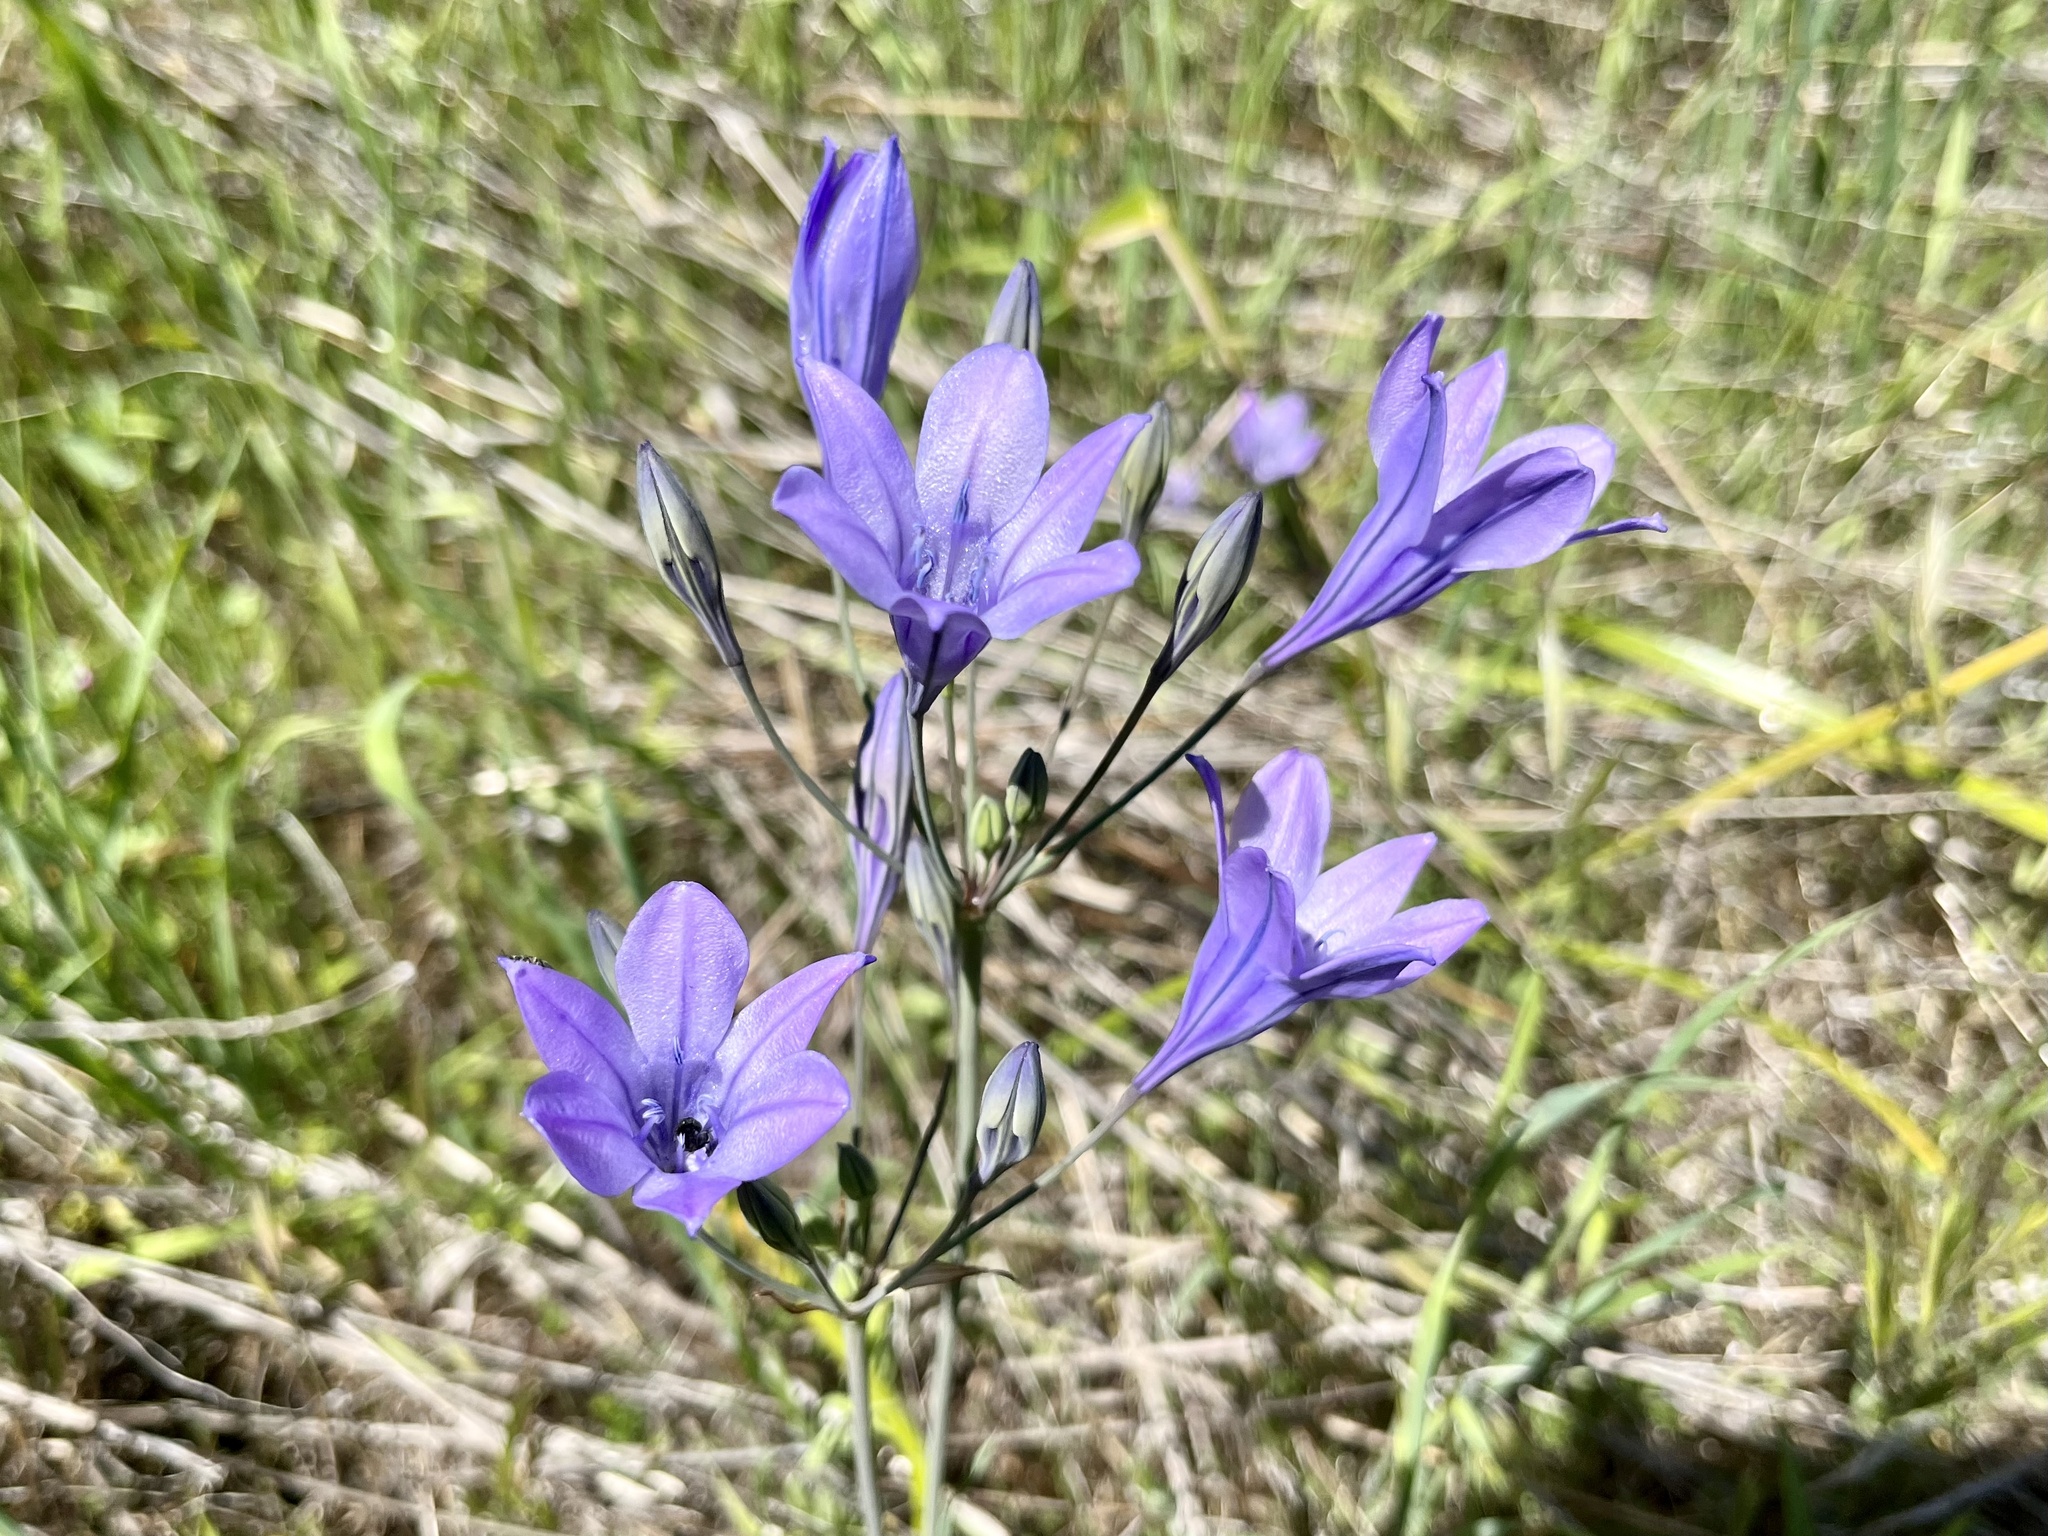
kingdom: Plantae
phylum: Tracheophyta
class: Liliopsida
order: Asparagales
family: Asparagaceae
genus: Triteleia
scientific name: Triteleia laxa
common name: Triplet-lily
